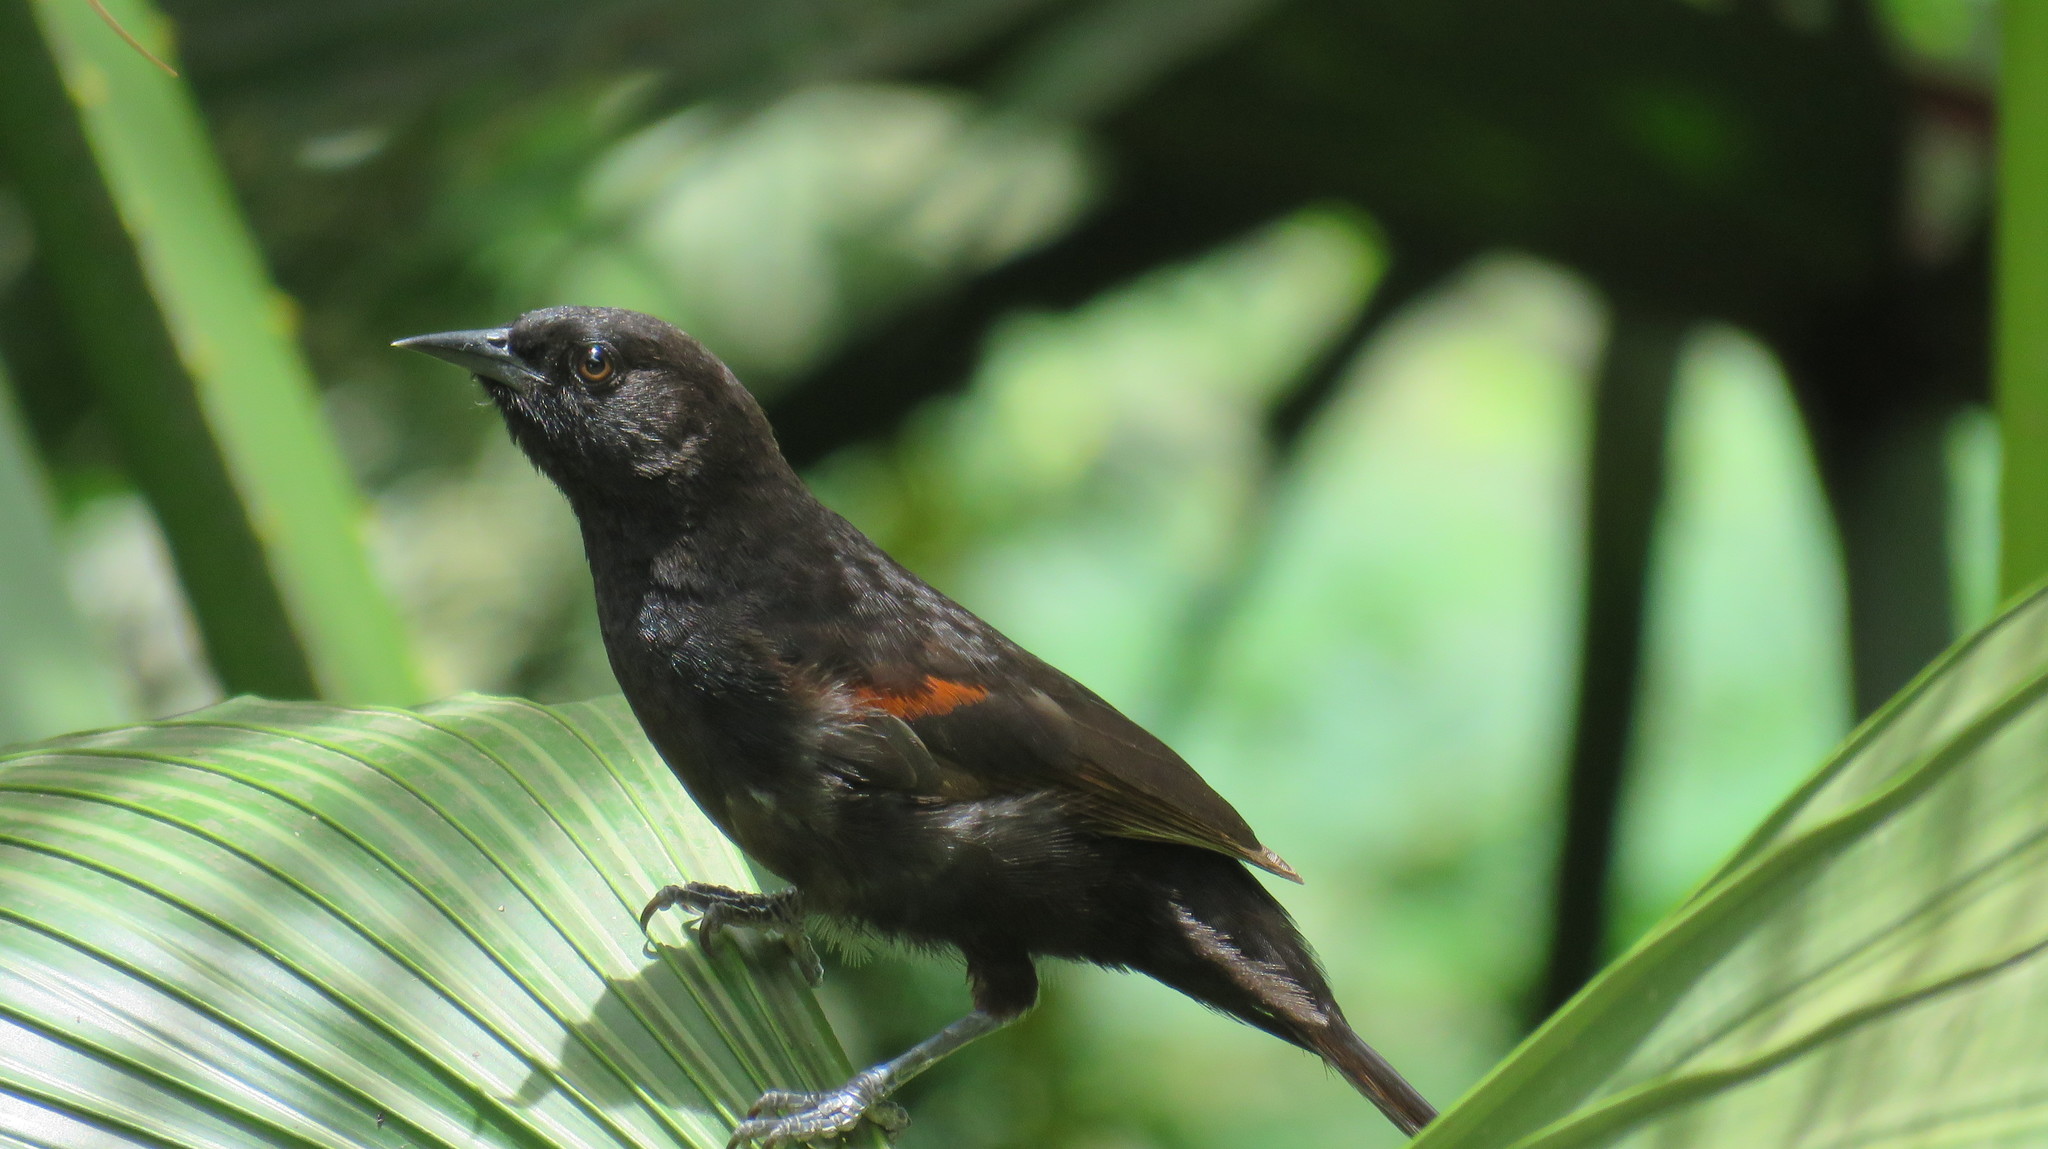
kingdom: Animalia
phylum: Chordata
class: Aves
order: Passeriformes
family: Icteridae
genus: Icterus
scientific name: Icterus cayanensis
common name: Epaulet oriole
